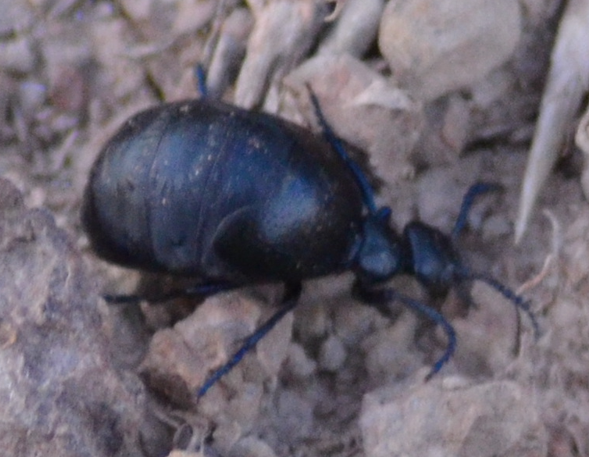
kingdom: Animalia
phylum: Arthropoda
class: Insecta
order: Coleoptera
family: Meloidae
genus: Meloe
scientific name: Meloe autumnalis
